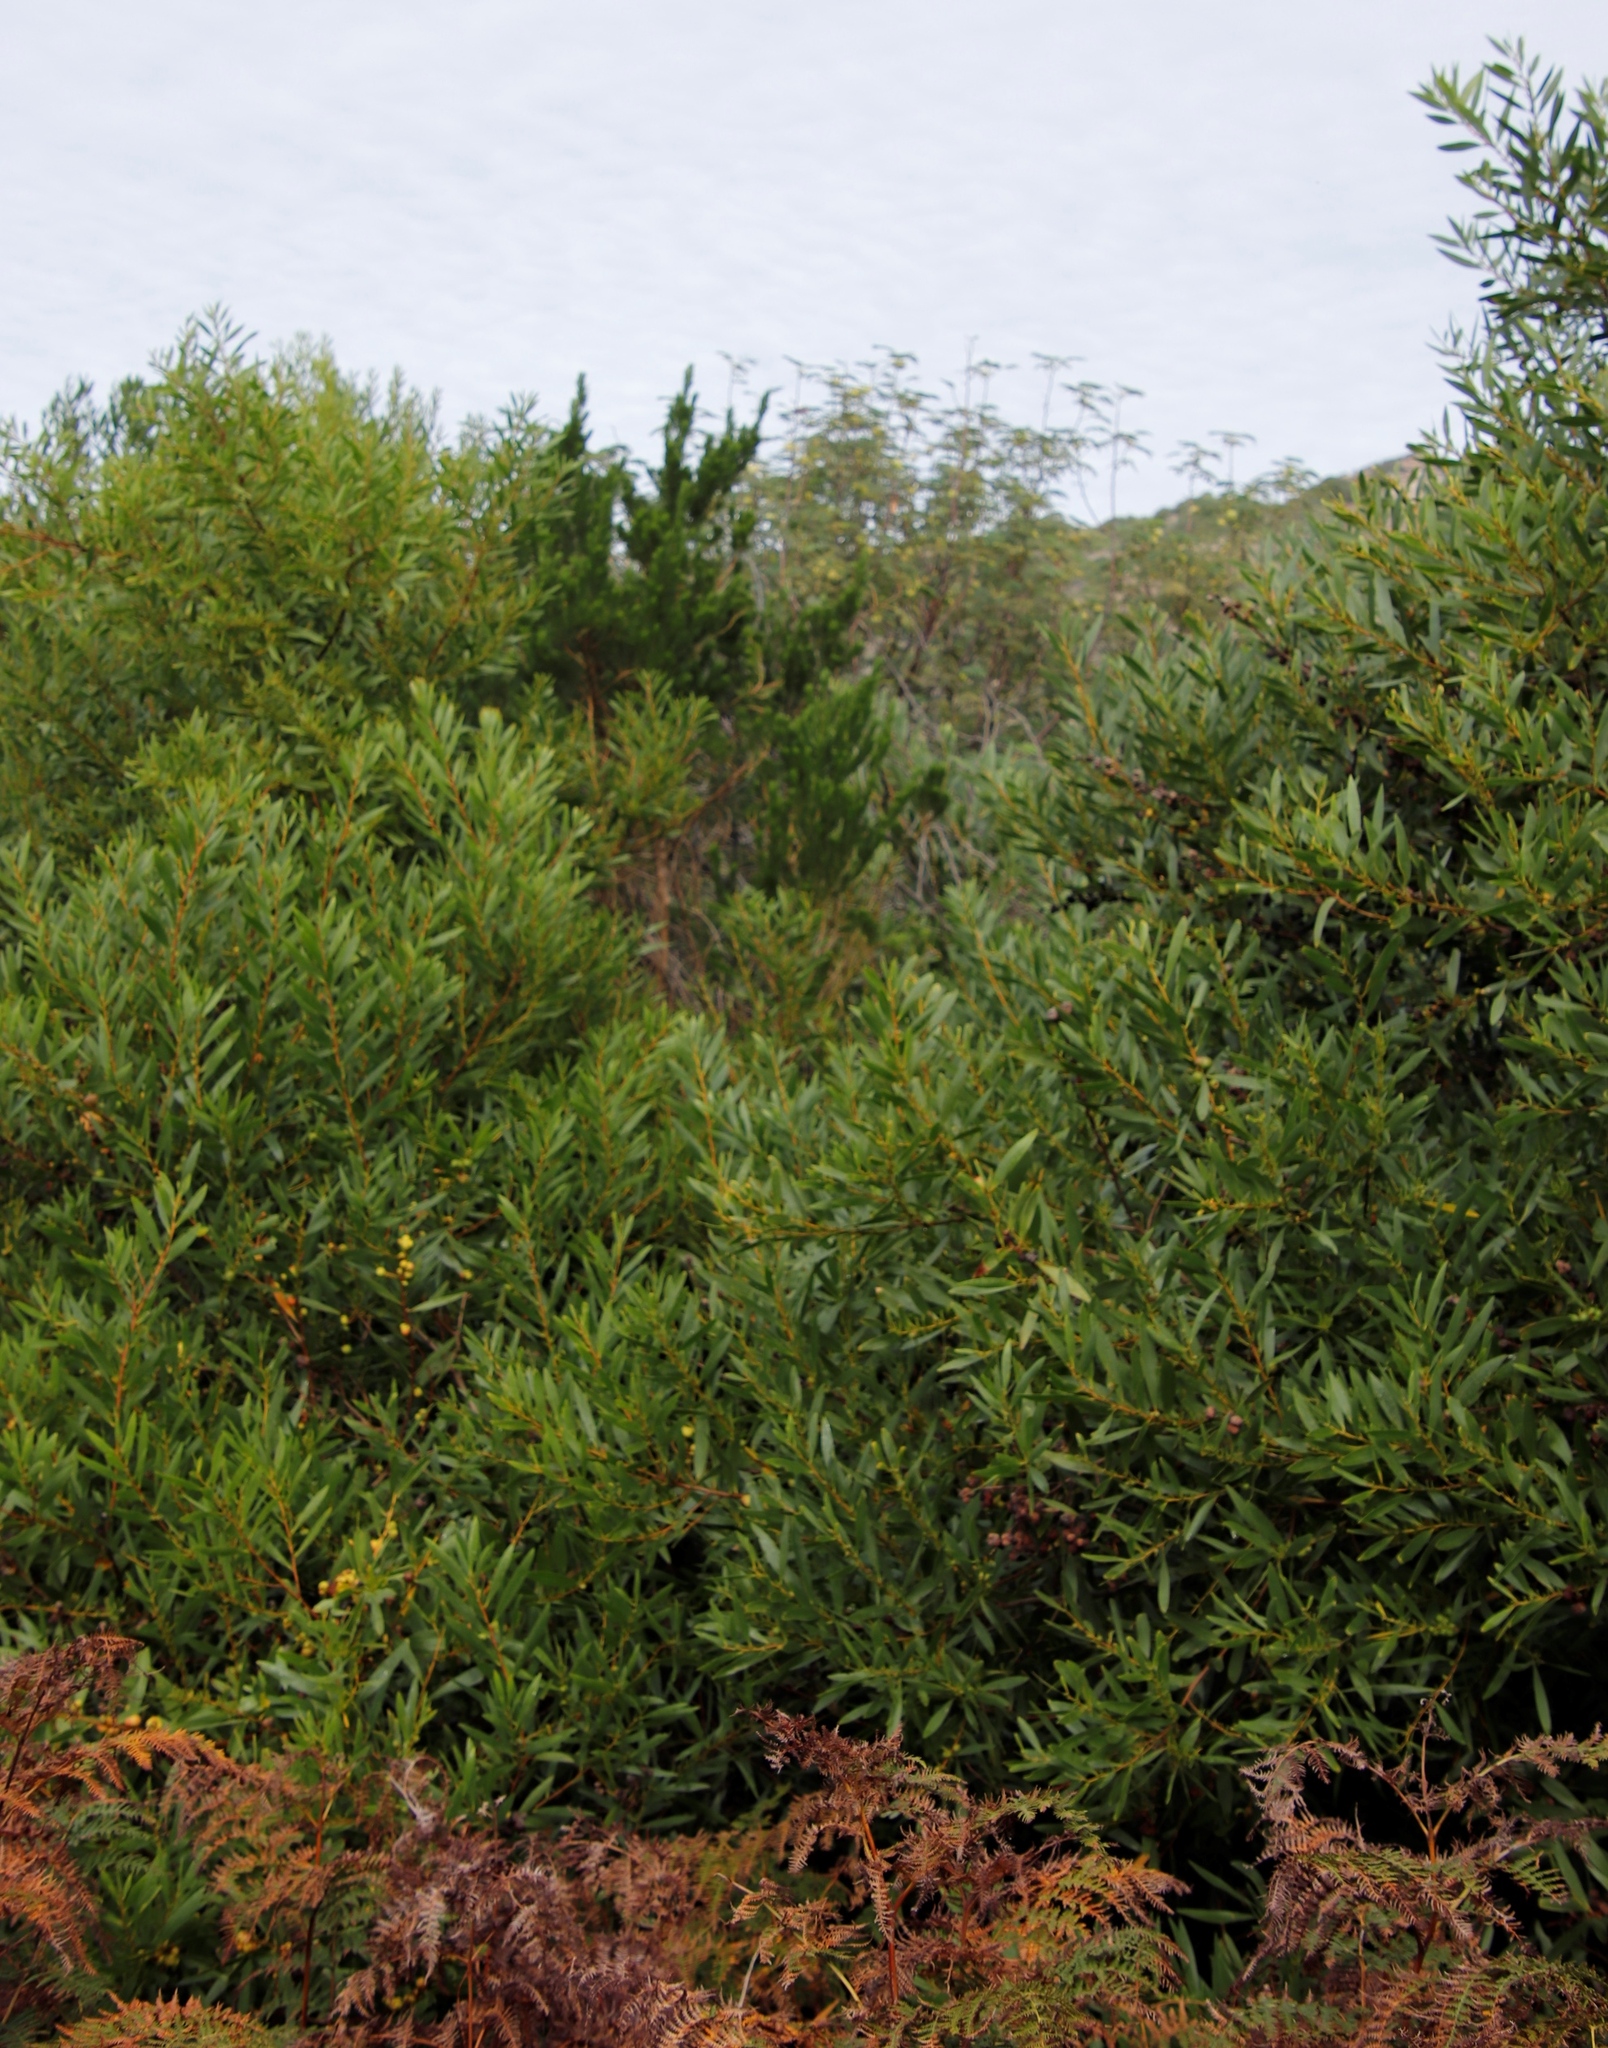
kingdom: Plantae
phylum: Tracheophyta
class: Magnoliopsida
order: Fabales
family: Fabaceae
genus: Psoralea
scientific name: Psoralea pinnata
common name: African scurfpea
